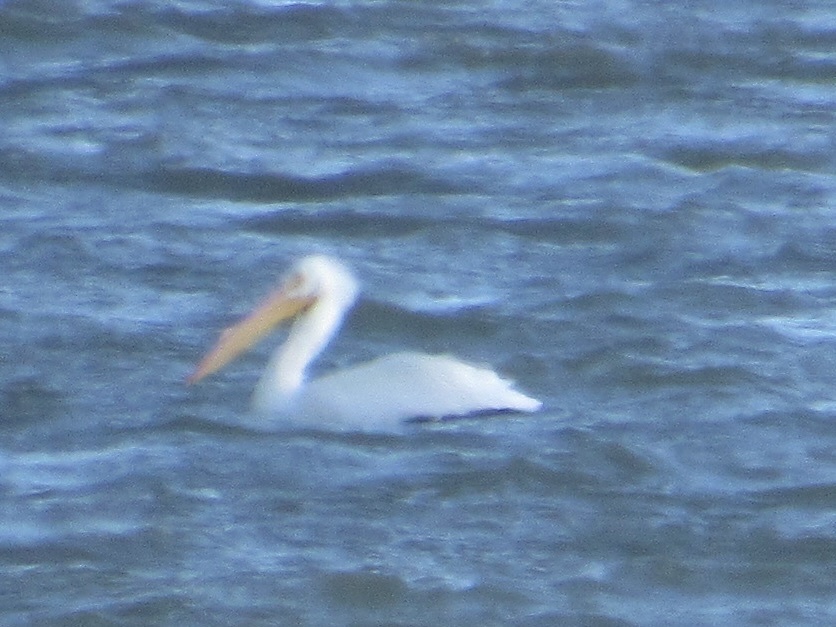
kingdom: Animalia
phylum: Chordata
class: Aves
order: Pelecaniformes
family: Pelecanidae
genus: Pelecanus
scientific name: Pelecanus erythrorhynchos
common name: American white pelican
